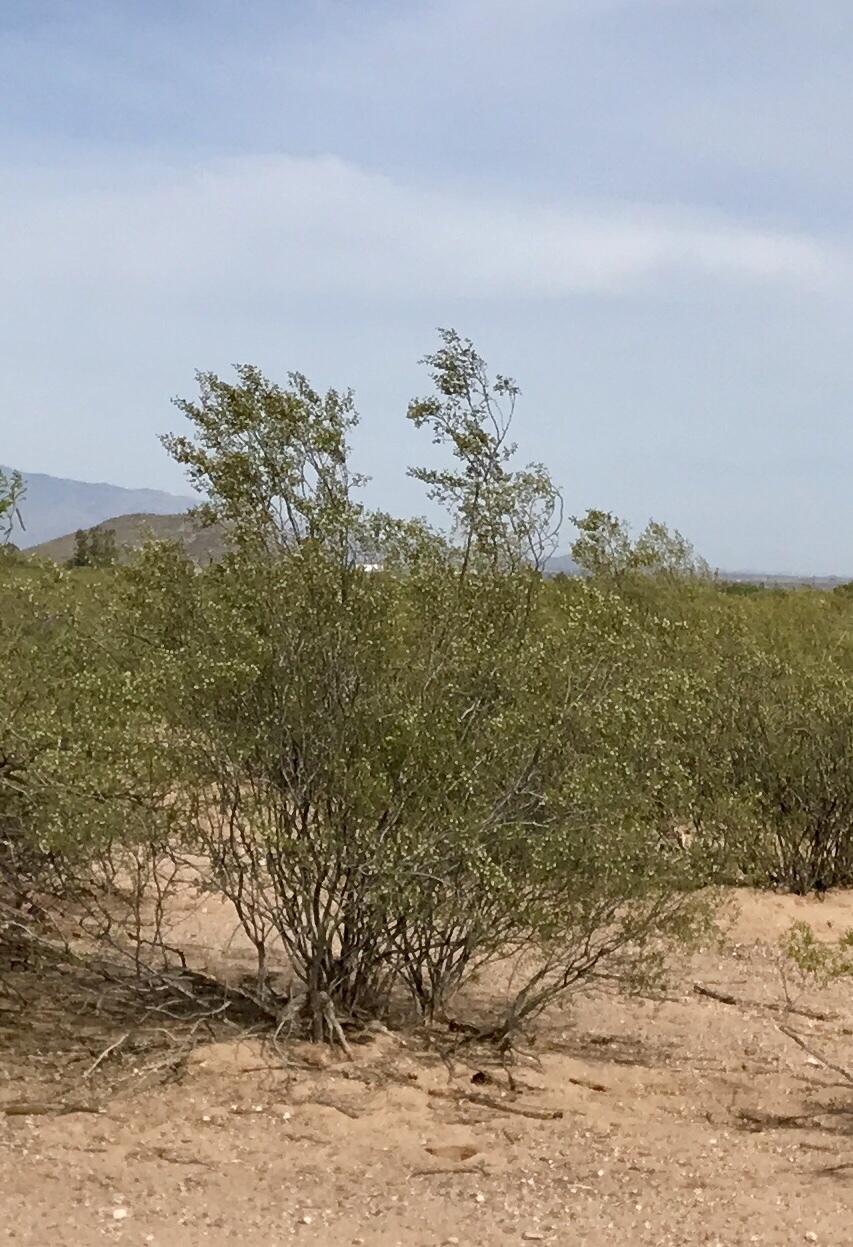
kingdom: Plantae
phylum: Tracheophyta
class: Magnoliopsida
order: Zygophyllales
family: Zygophyllaceae
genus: Larrea
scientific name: Larrea tridentata
